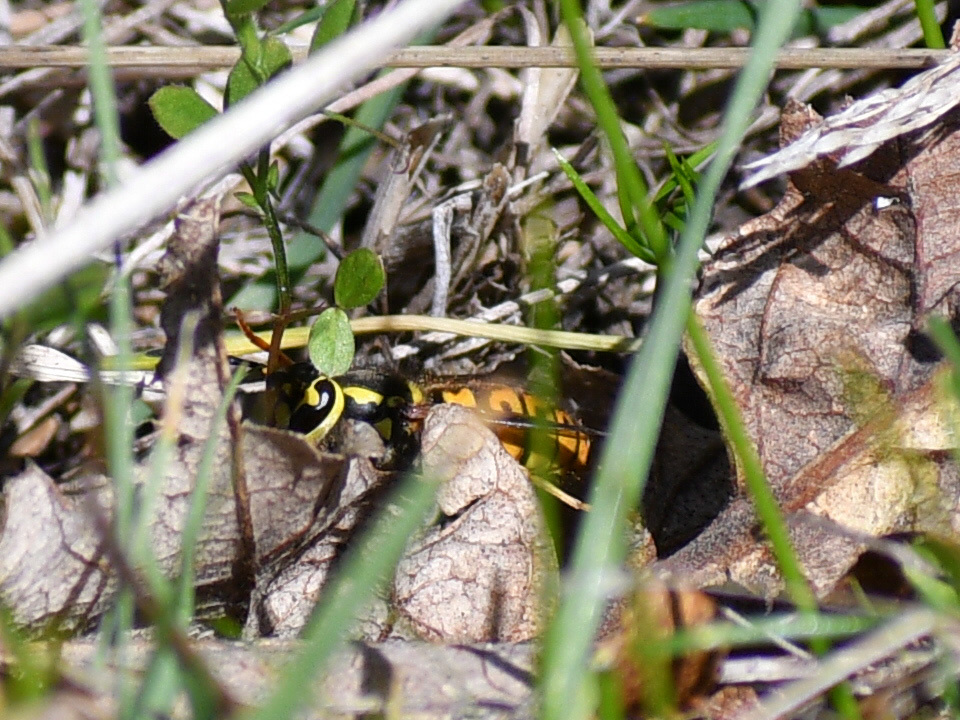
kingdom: Animalia
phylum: Arthropoda
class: Insecta
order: Hymenoptera
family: Vespidae
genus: Vespula
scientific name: Vespula pensylvanica
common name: Western yellowjacket
